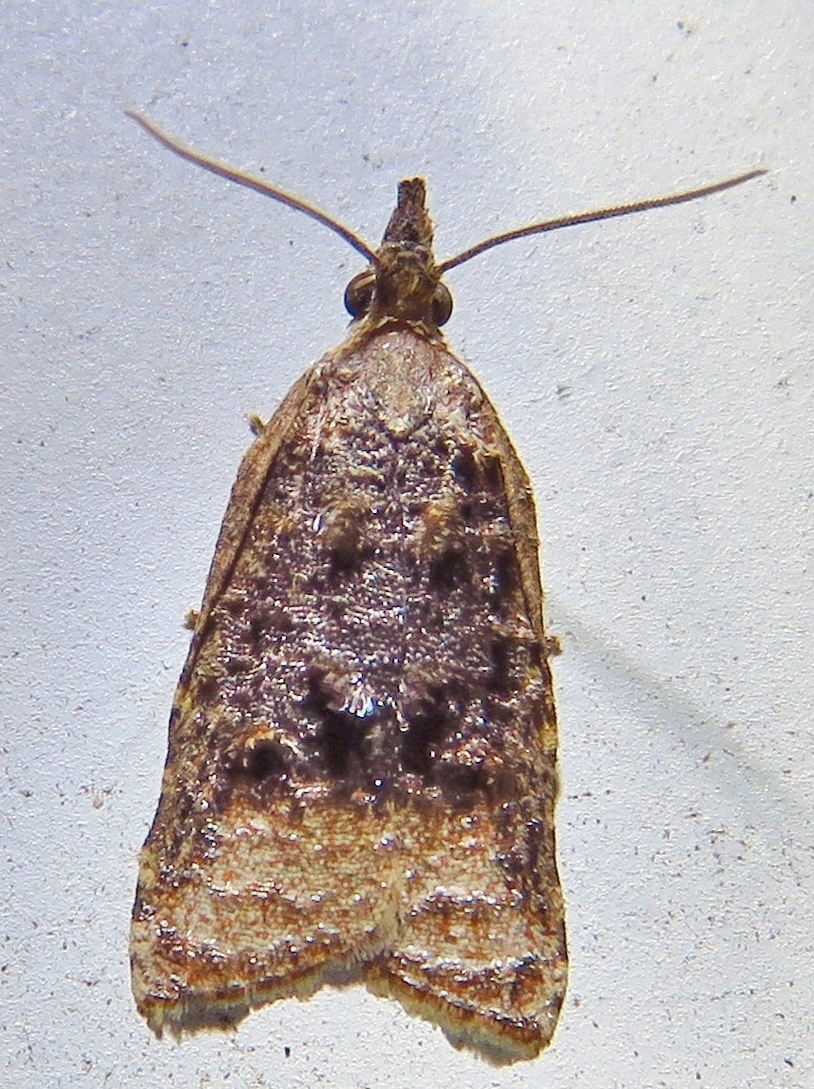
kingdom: Animalia
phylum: Arthropoda
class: Insecta
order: Lepidoptera
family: Tortricidae
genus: Platynota
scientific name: Platynota flavedana
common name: Black-shaded platynota moth
